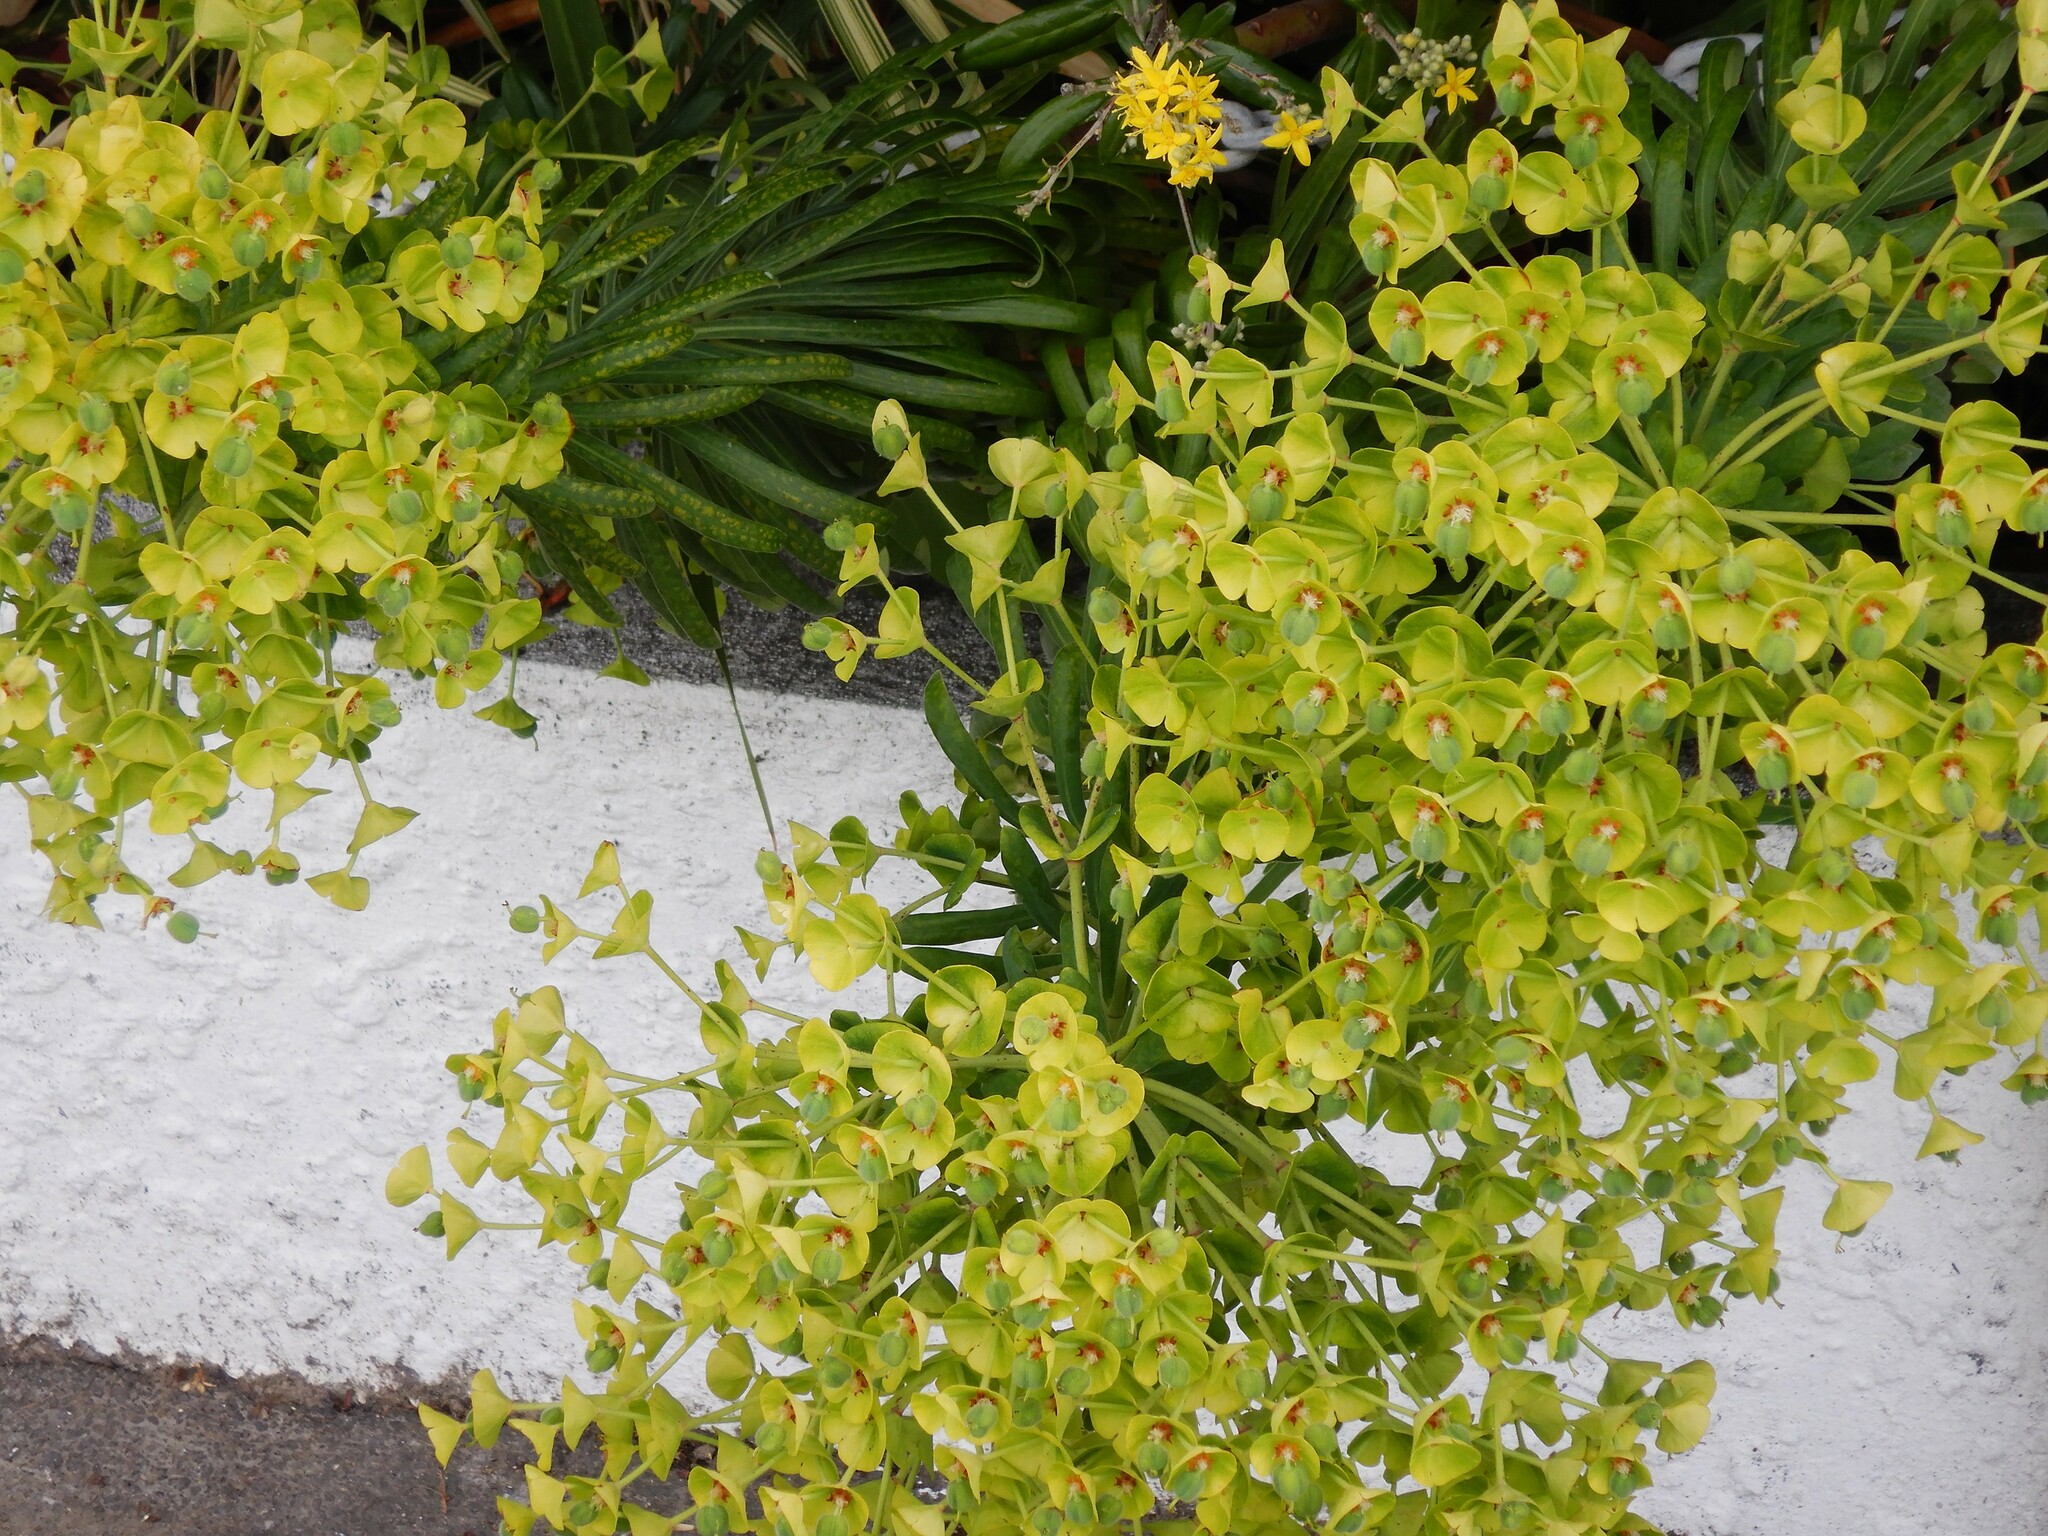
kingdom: Plantae
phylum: Tracheophyta
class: Magnoliopsida
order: Malpighiales
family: Euphorbiaceae
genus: Euphorbia
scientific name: Euphorbia characias
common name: Mediterranean spurge
